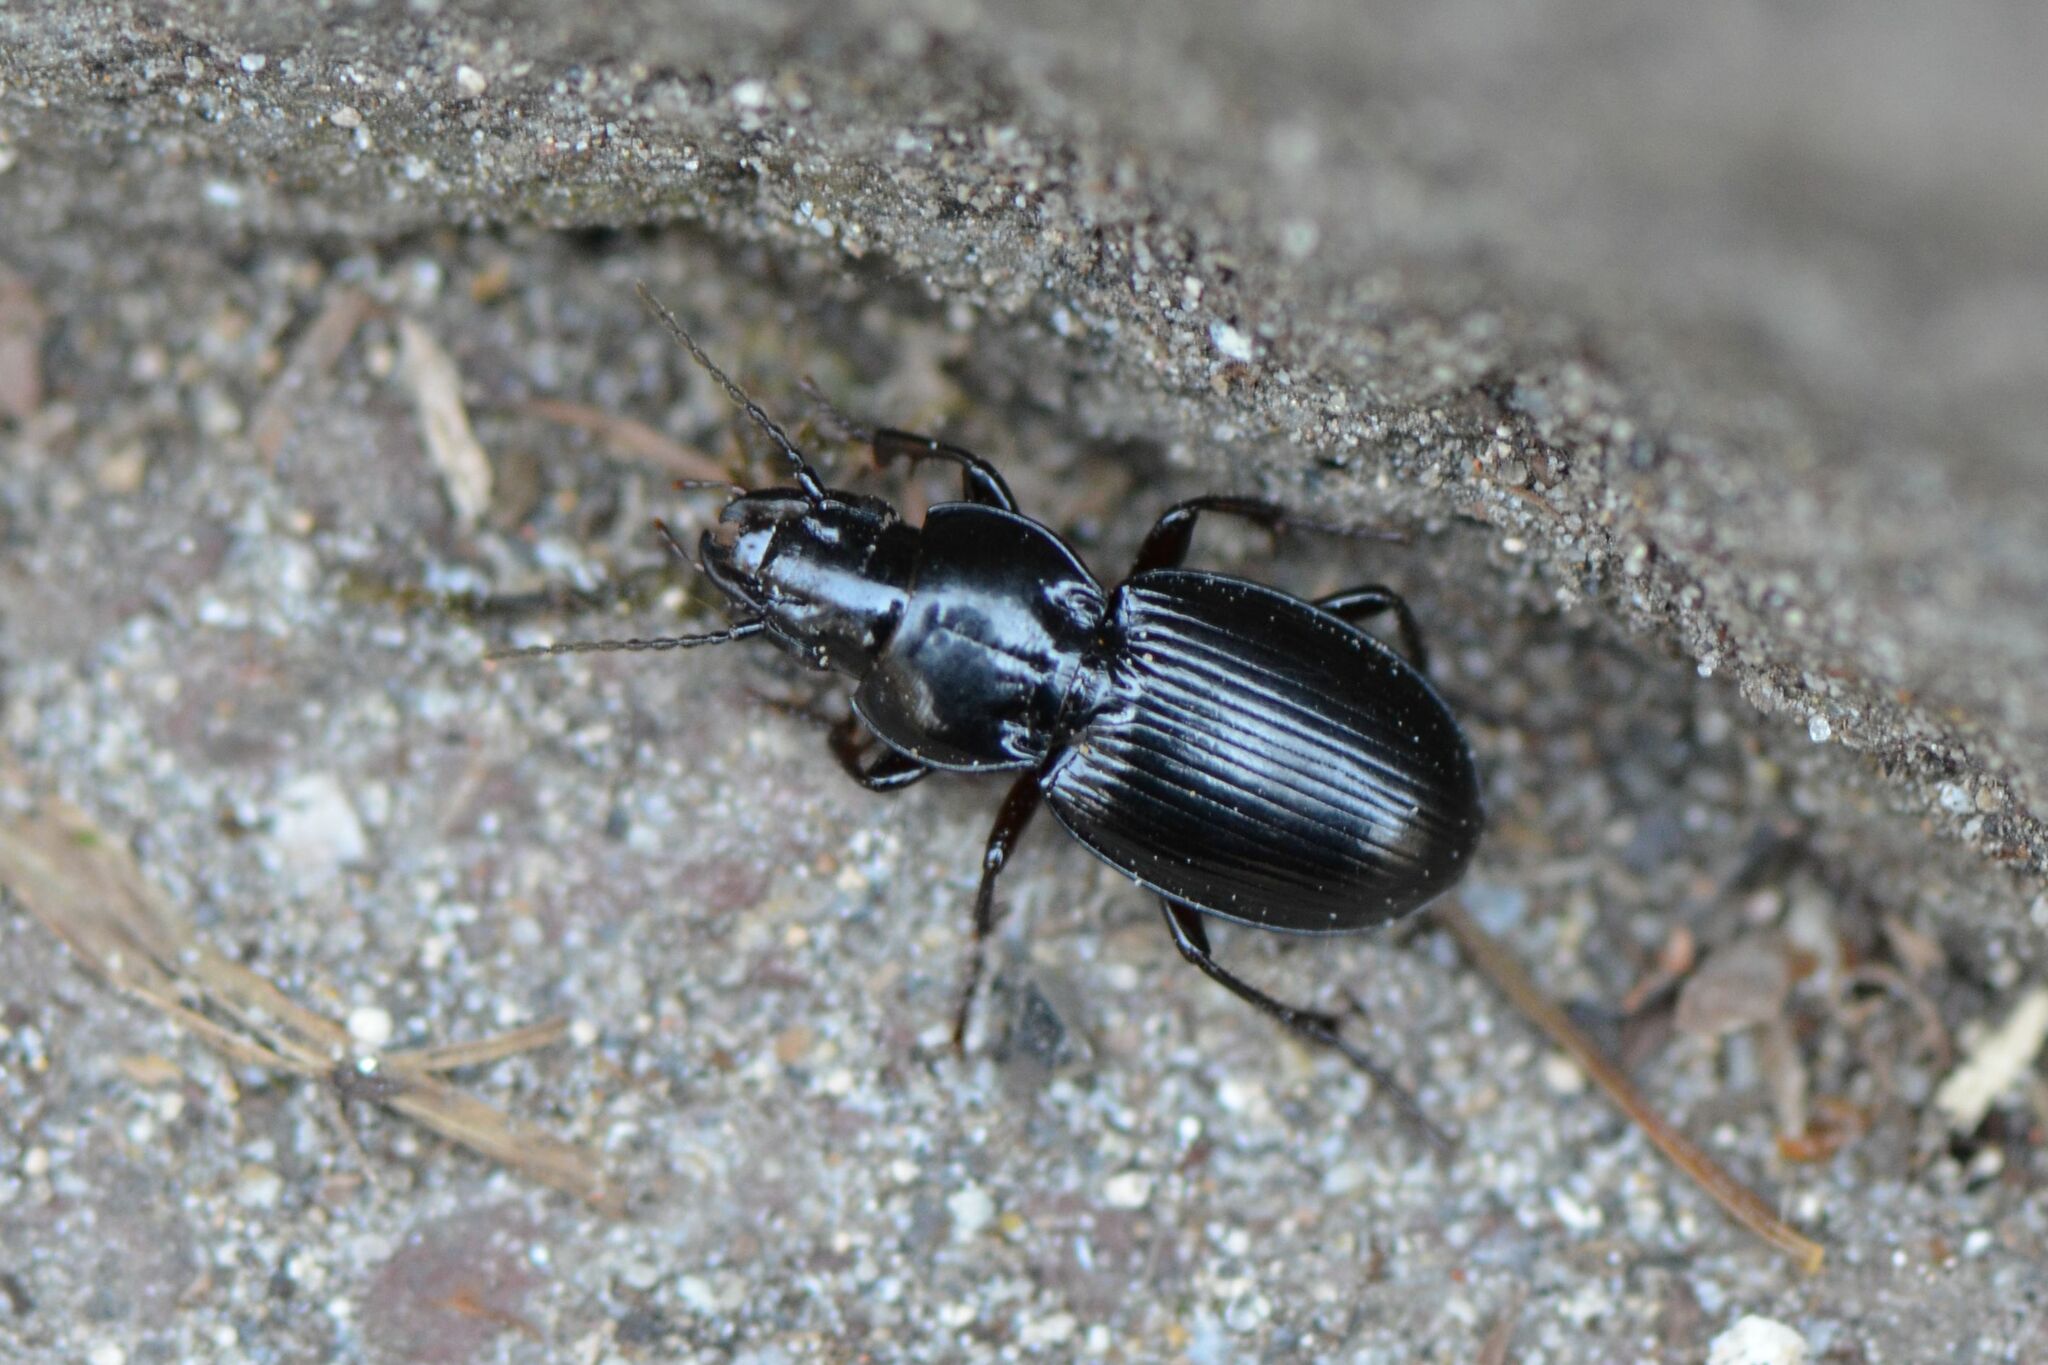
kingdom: Animalia
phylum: Arthropoda
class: Insecta
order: Coleoptera
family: Carabidae
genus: Molops
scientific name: Molops elatus
